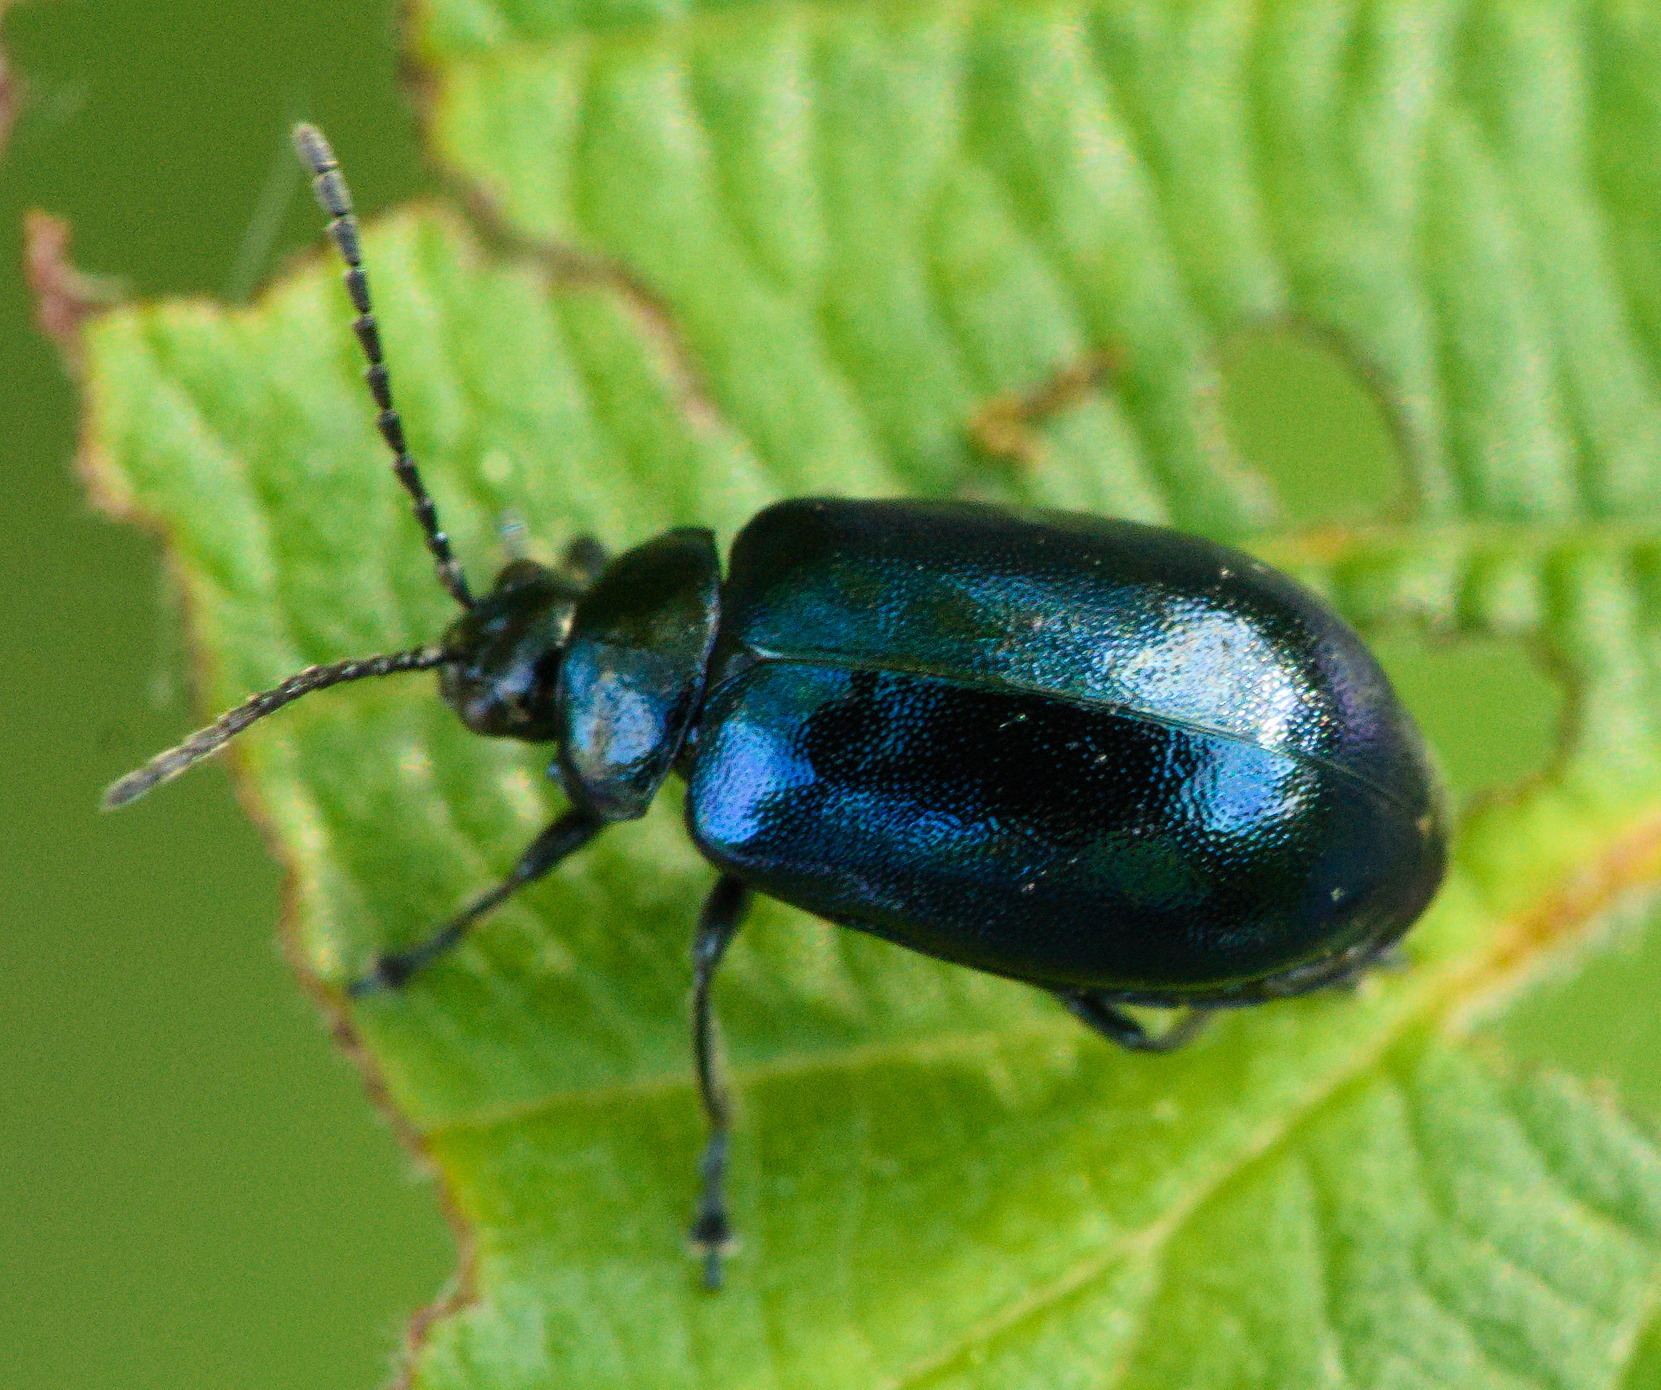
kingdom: Animalia
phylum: Arthropoda
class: Insecta
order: Coleoptera
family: Chrysomelidae
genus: Agelastica
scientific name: Agelastica alni
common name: Alder leaf beetle
